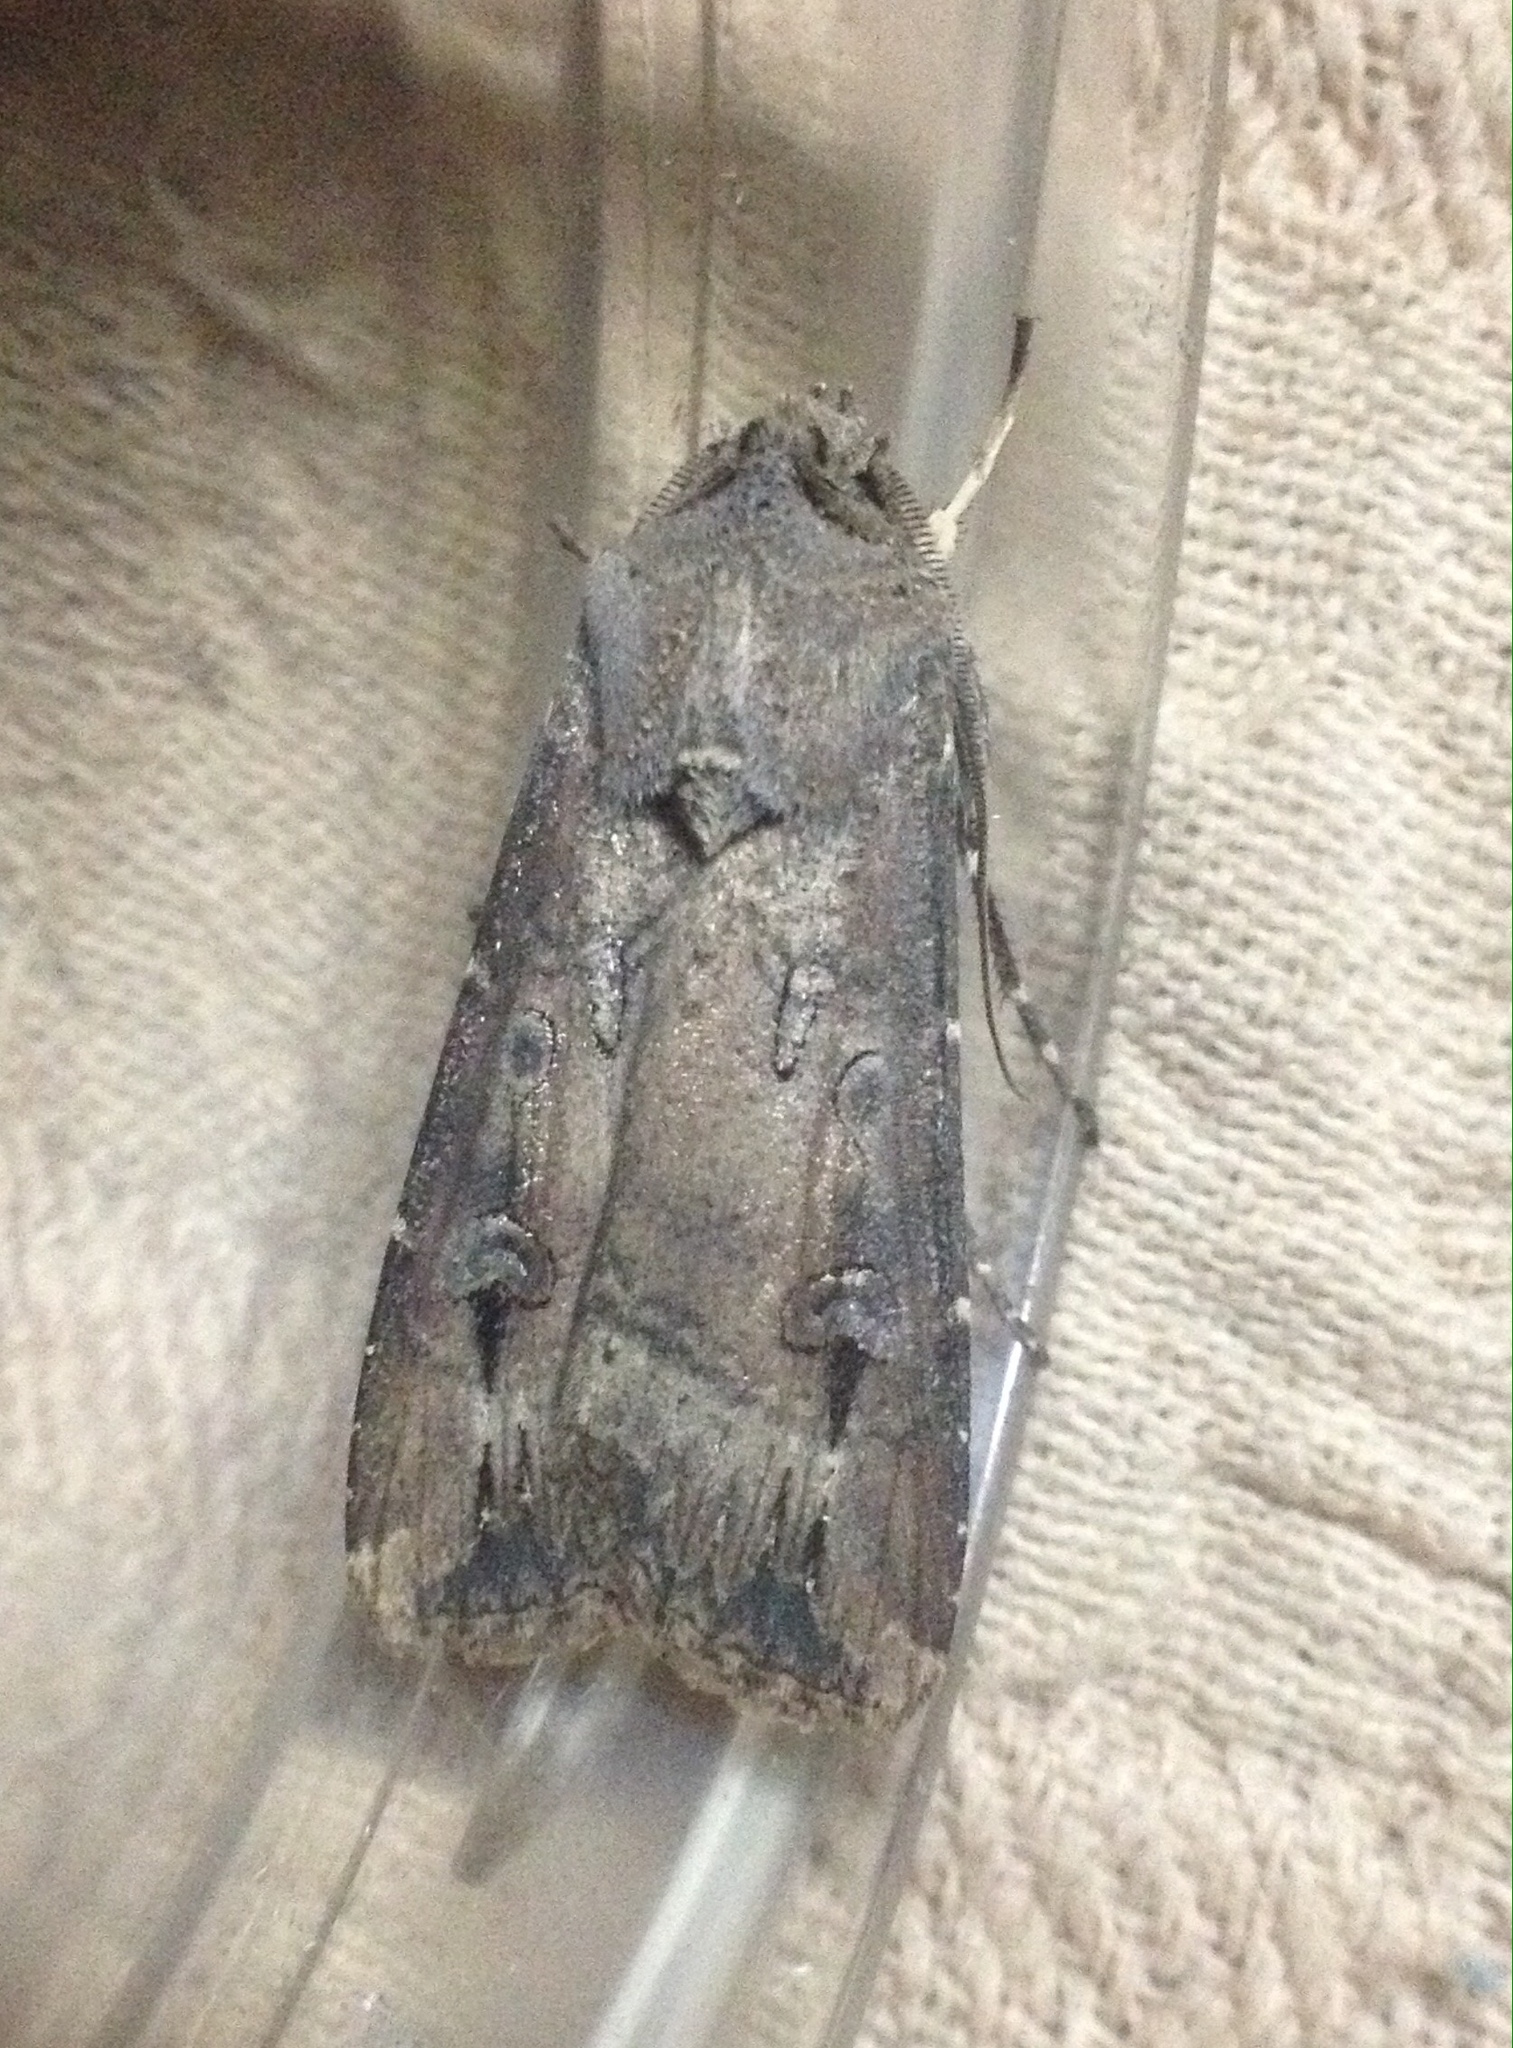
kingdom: Animalia
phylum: Arthropoda
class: Insecta
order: Lepidoptera
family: Noctuidae
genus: Agrotis
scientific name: Agrotis ipsilon
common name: Dark sword-grass
